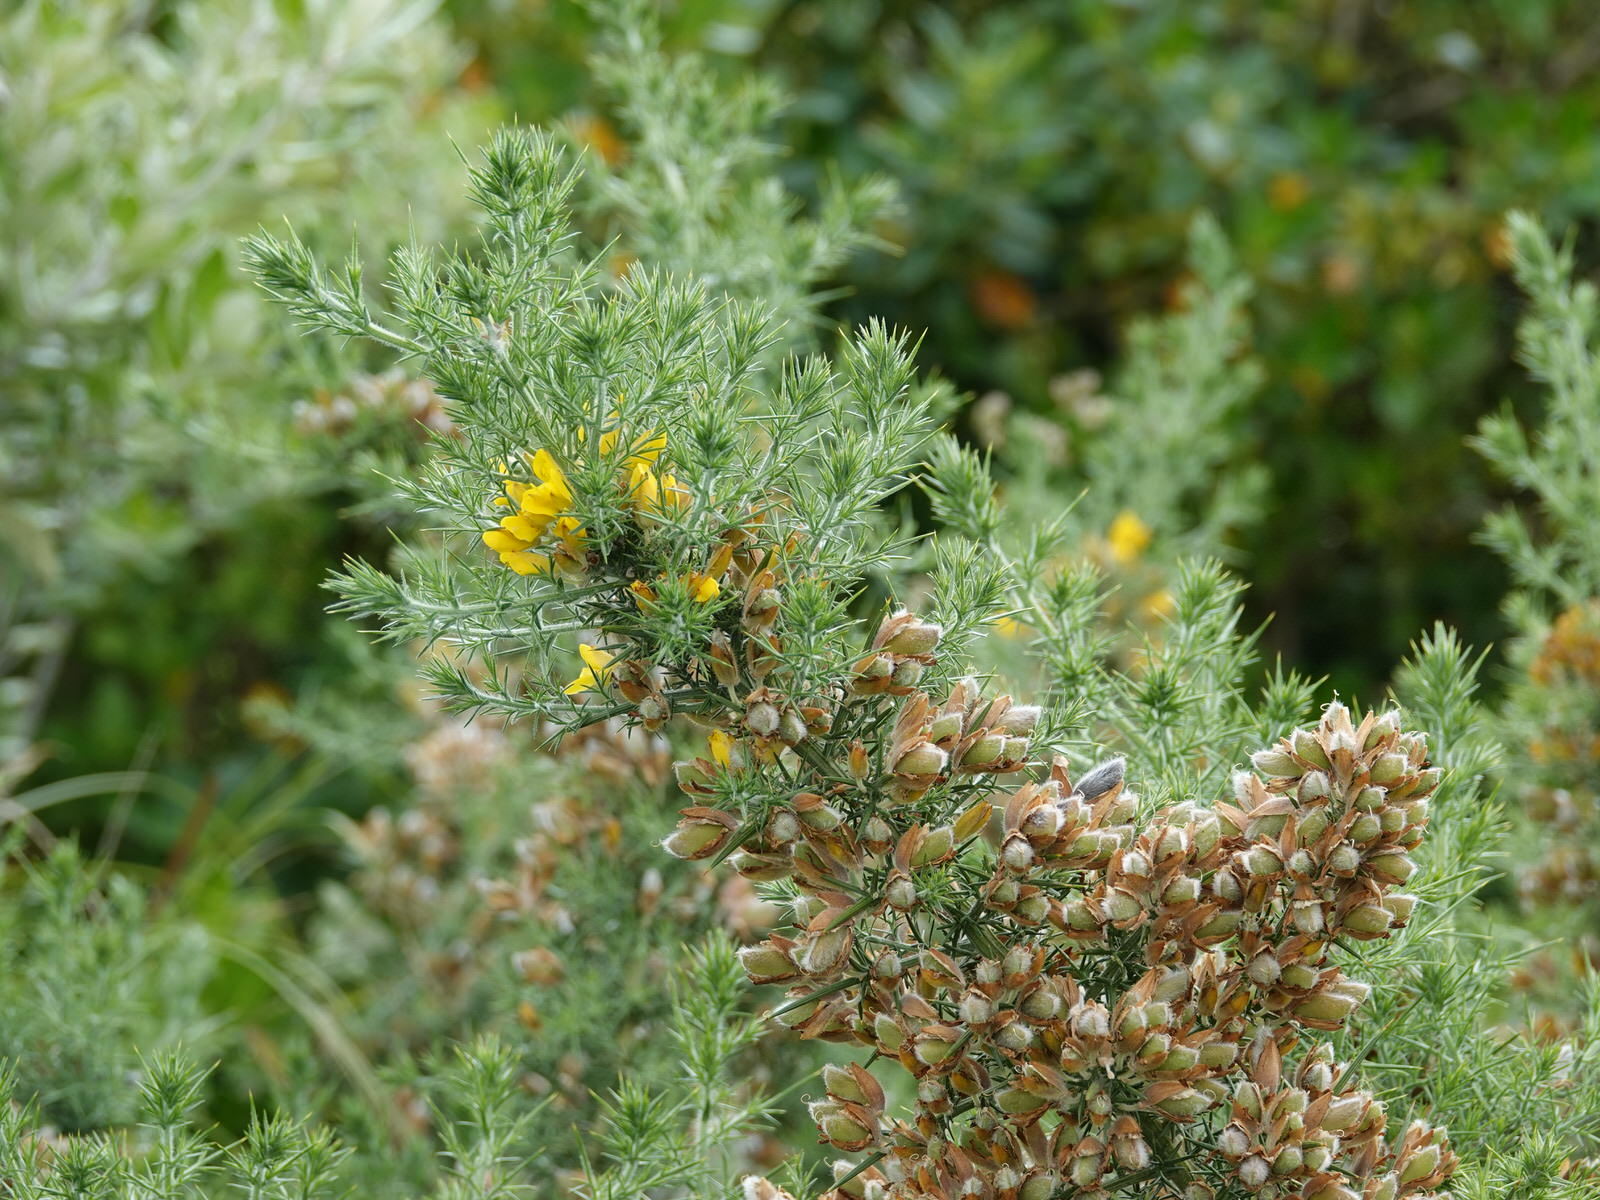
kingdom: Plantae
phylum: Tracheophyta
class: Magnoliopsida
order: Fabales
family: Fabaceae
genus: Ulex
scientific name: Ulex europaeus
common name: Common gorse
